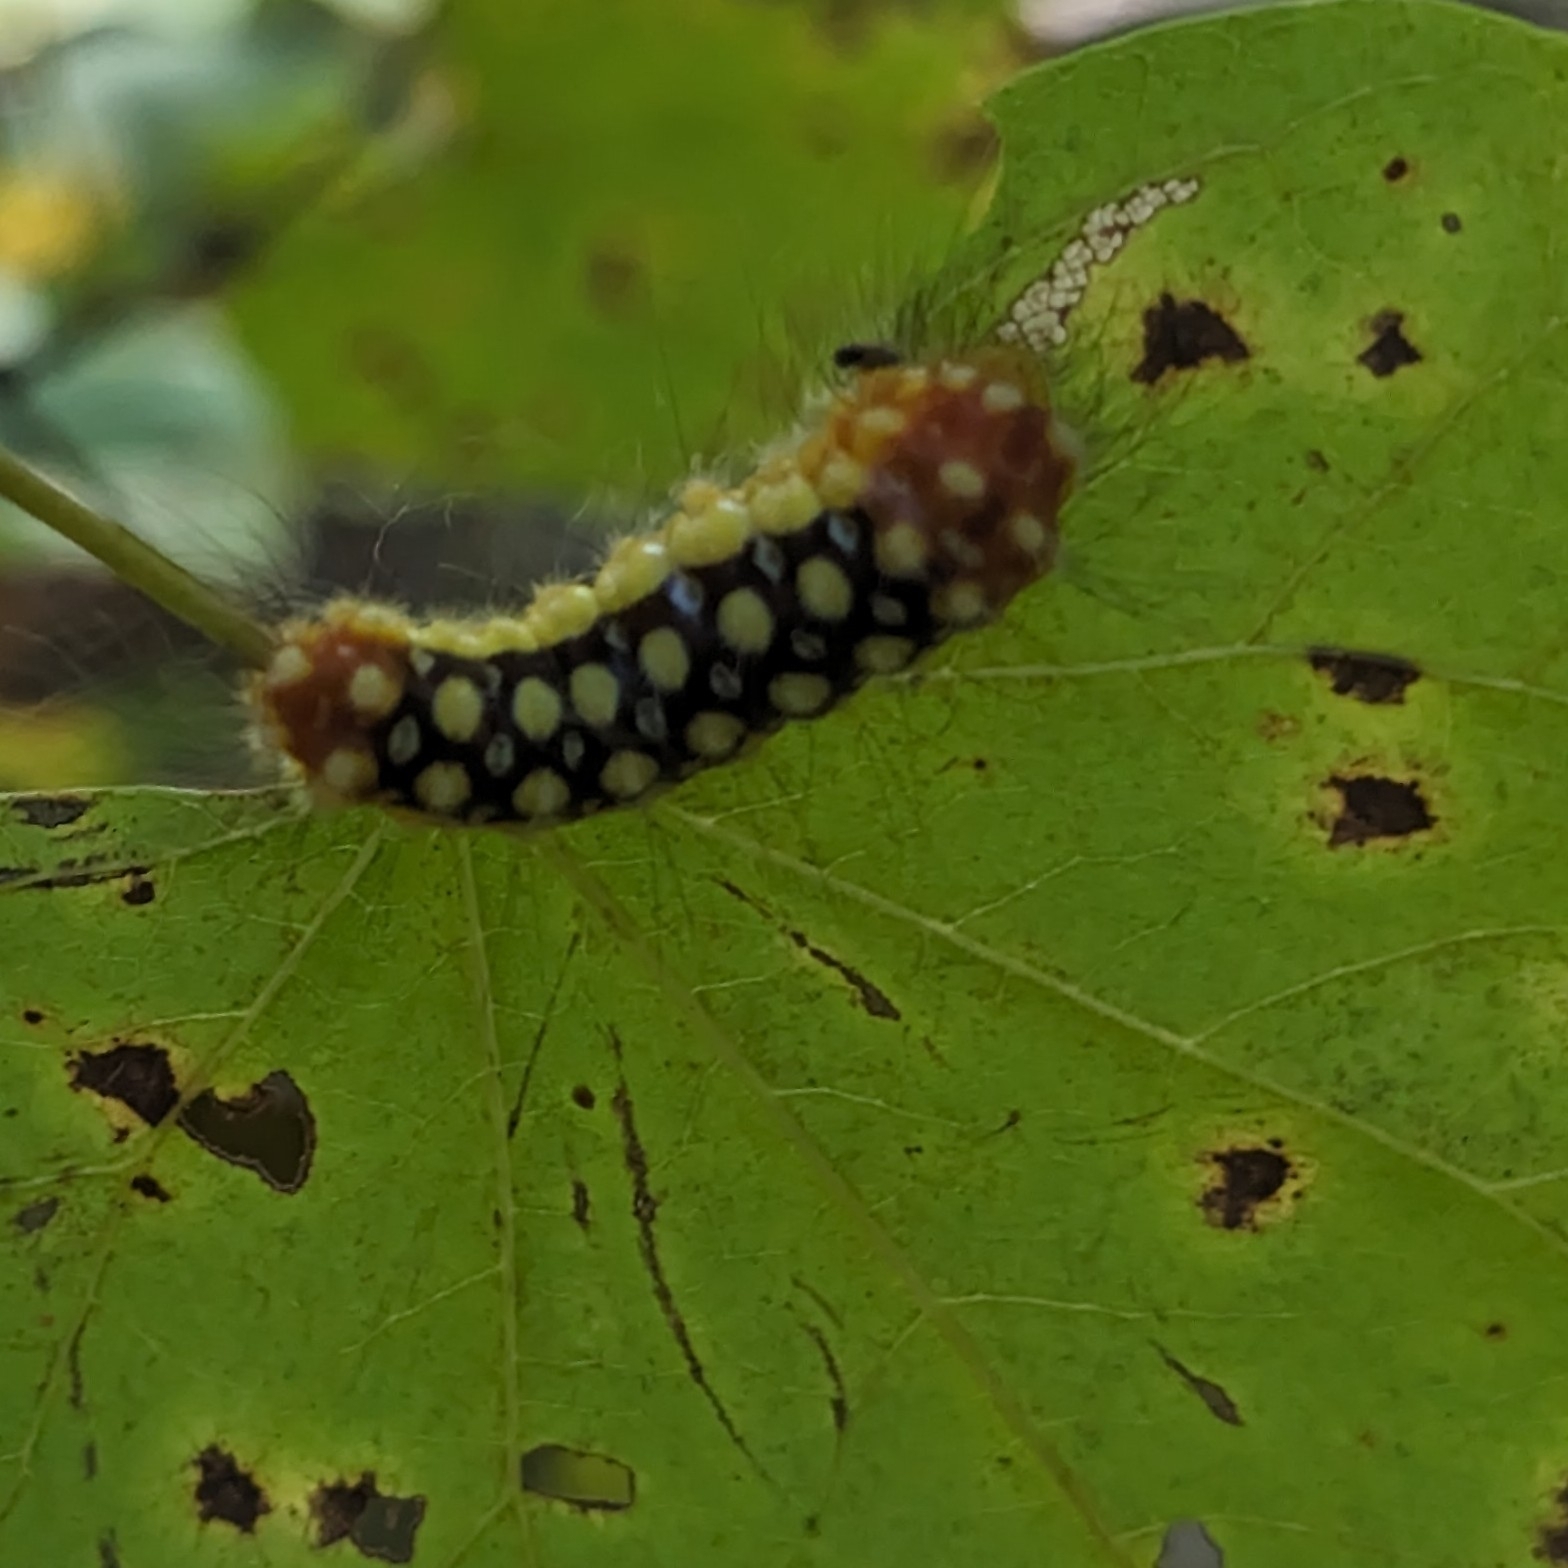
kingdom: Animalia
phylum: Arthropoda
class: Insecta
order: Lepidoptera
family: Megalopygidae
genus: Norape
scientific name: Norape cretata
